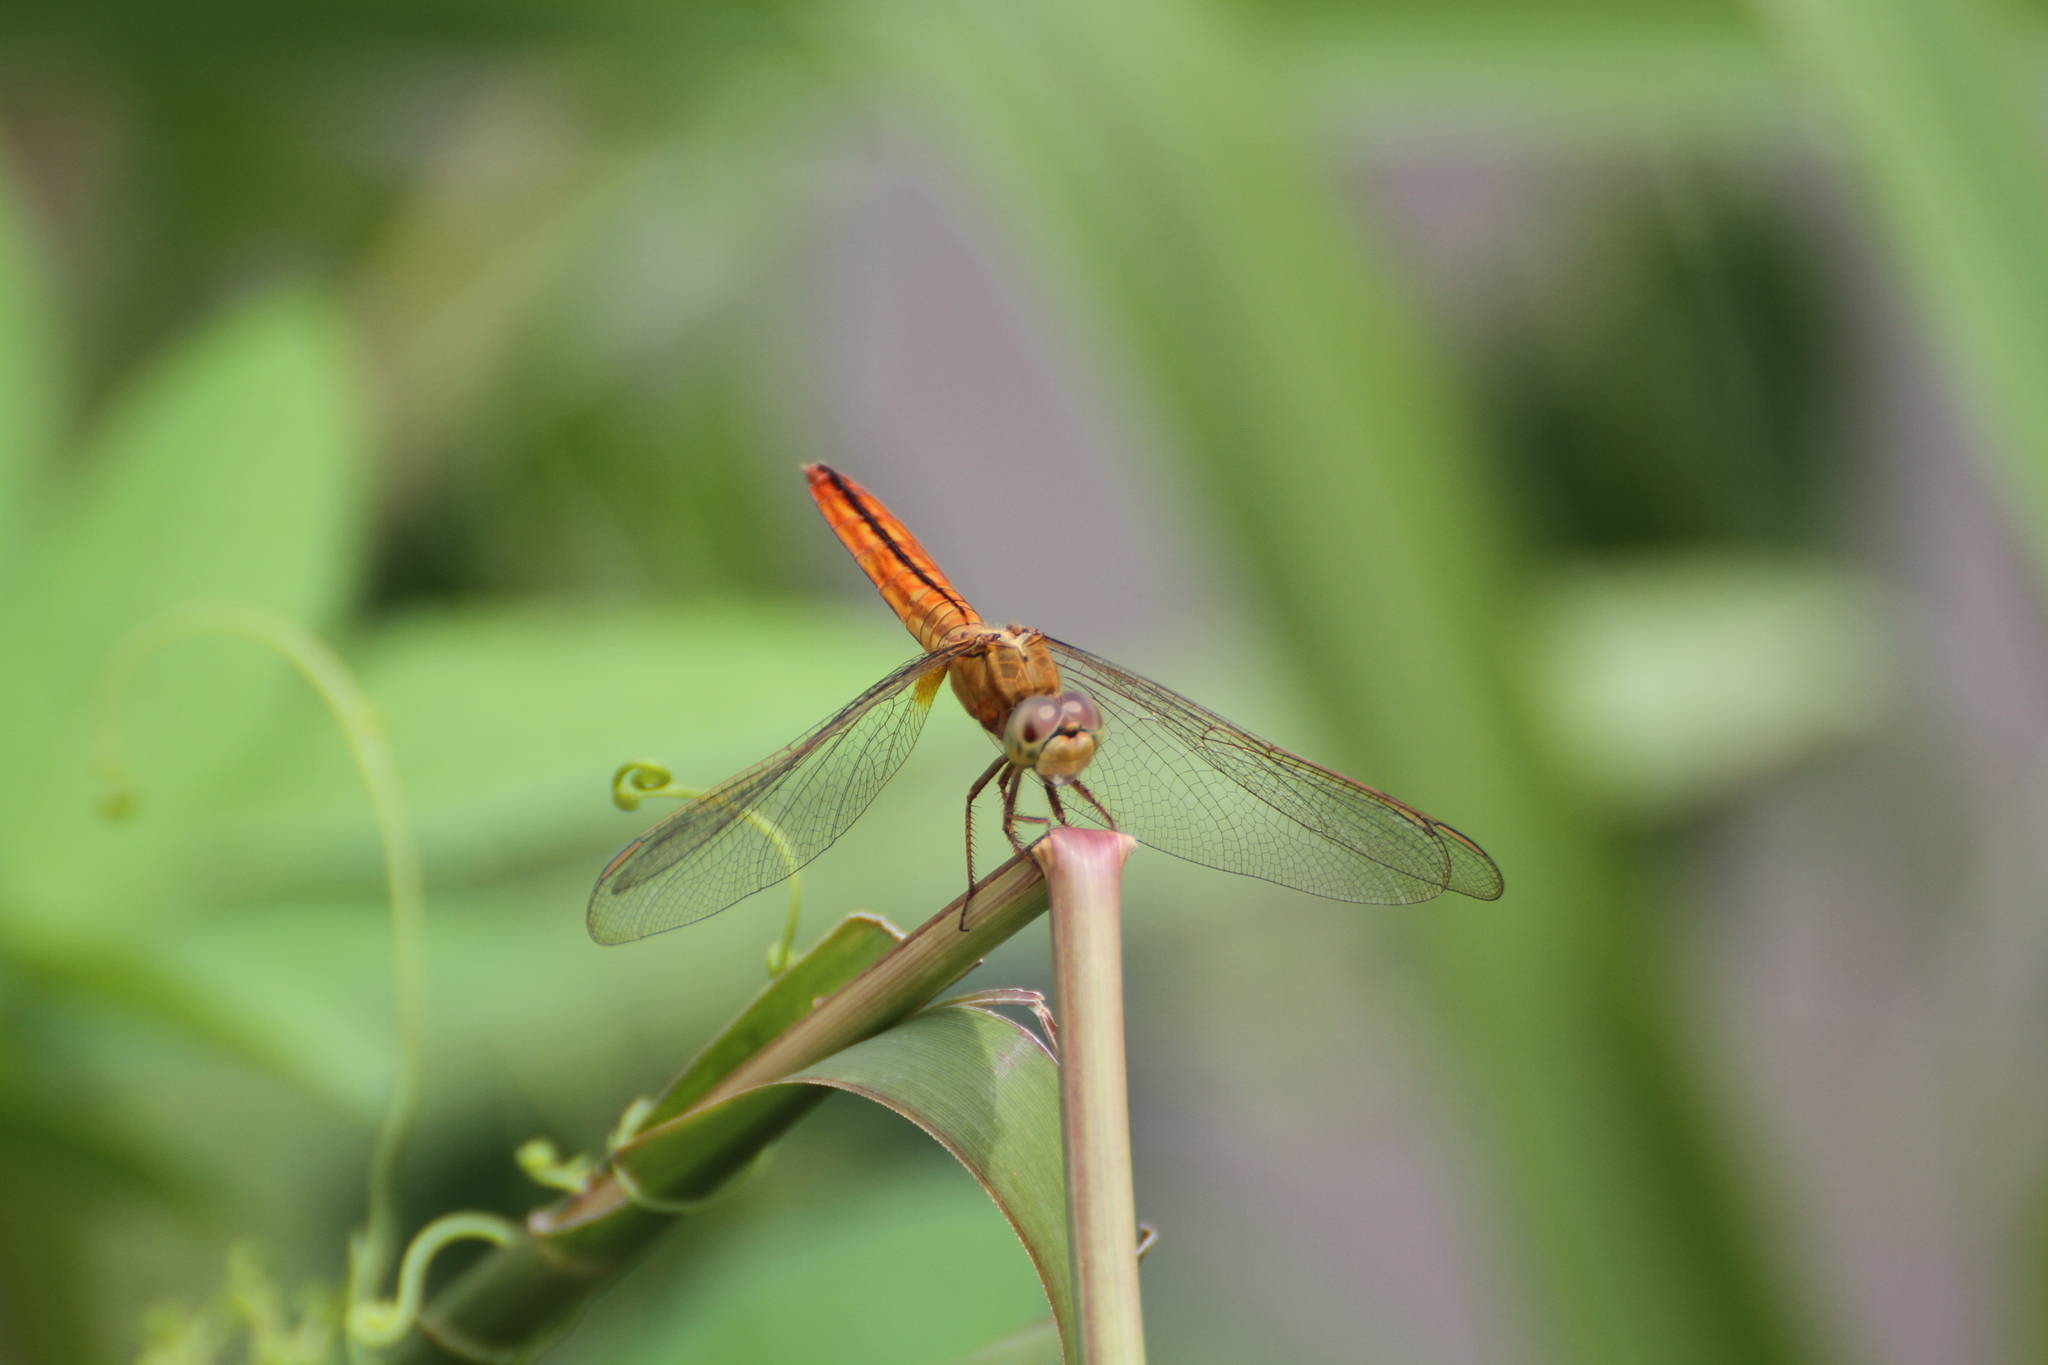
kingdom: Animalia
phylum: Arthropoda
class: Insecta
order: Odonata
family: Libellulidae
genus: Crocothemis
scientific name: Crocothemis servilia
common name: Scarlet skimmer
